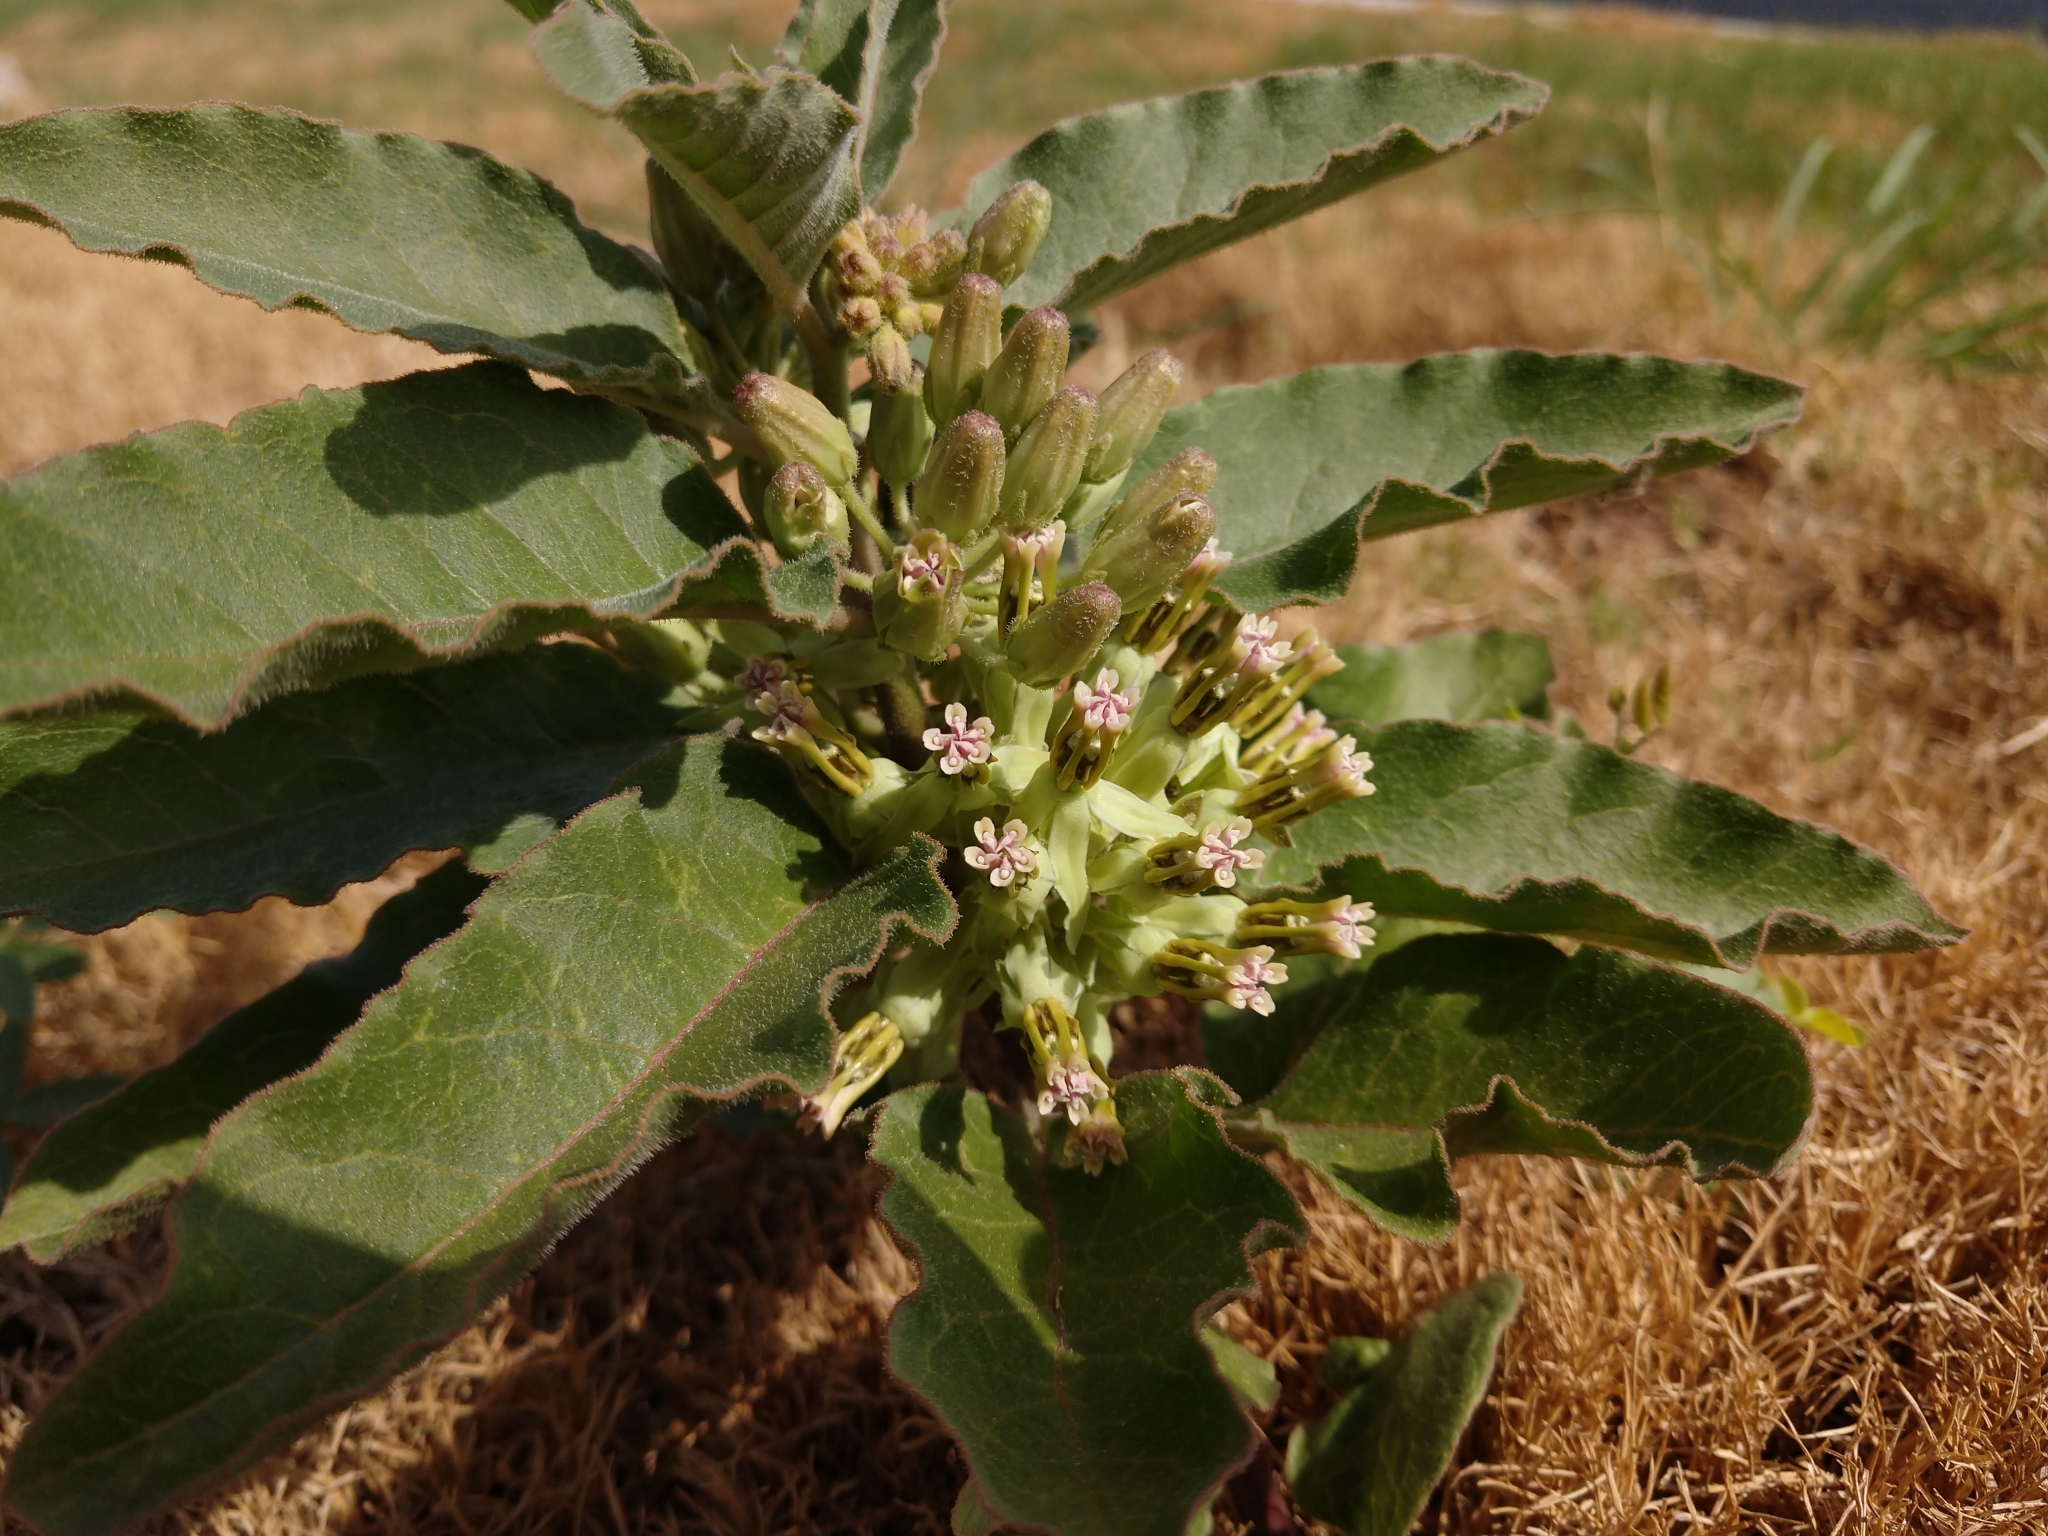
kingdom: Plantae
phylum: Tracheophyta
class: Magnoliopsida
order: Gentianales
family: Apocynaceae
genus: Asclepias
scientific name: Asclepias oenotheroides
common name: Zizotes milkweed
